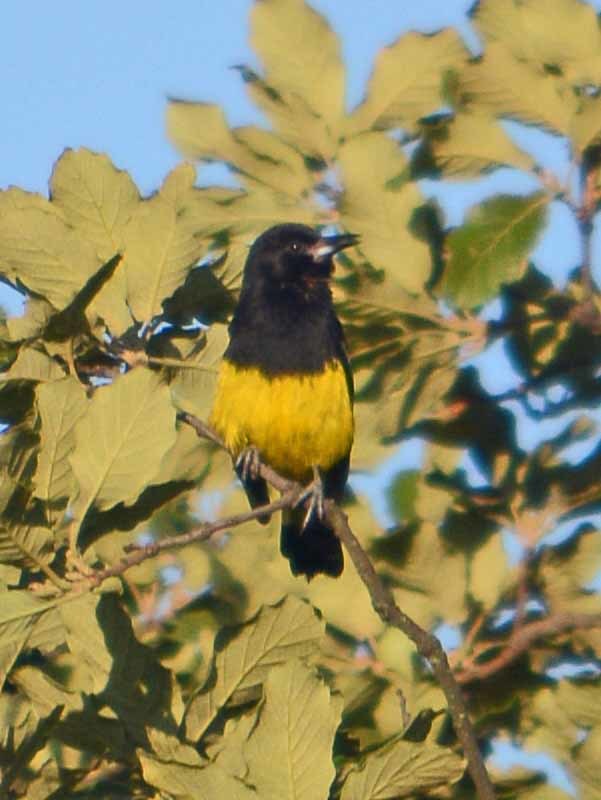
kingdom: Animalia
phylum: Chordata
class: Aves
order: Passeriformes
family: Icteridae
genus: Icterus
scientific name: Icterus parisorum
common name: Scott's oriole
